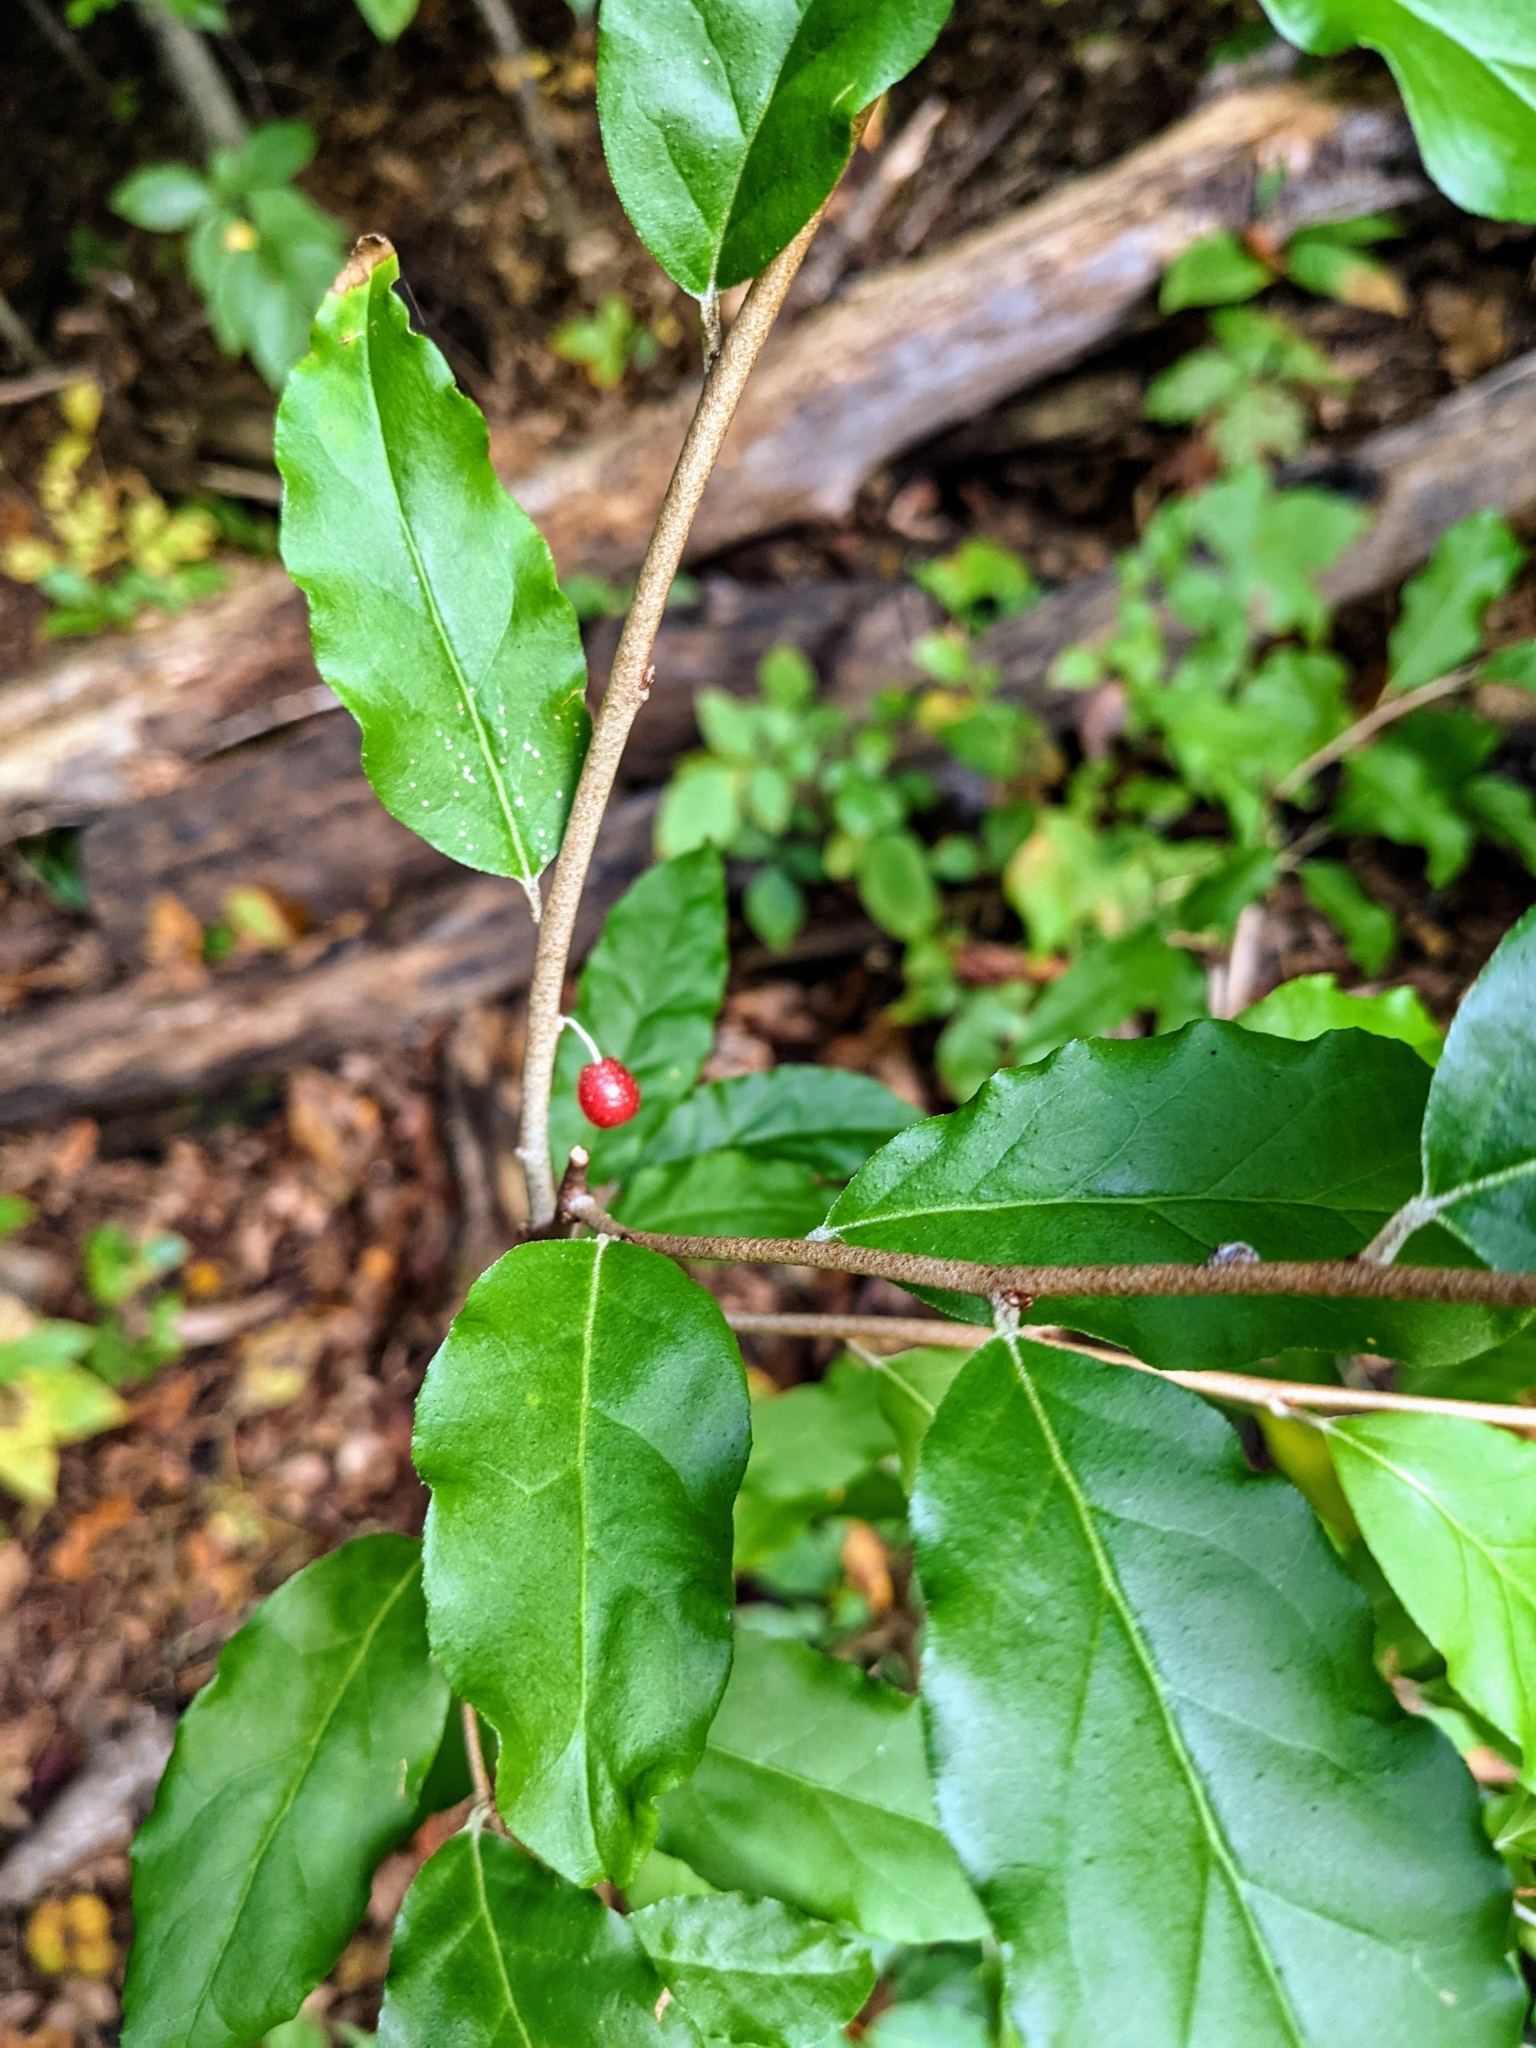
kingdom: Plantae
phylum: Tracheophyta
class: Magnoliopsida
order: Rosales
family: Elaeagnaceae
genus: Elaeagnus
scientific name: Elaeagnus umbellata
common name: Autumn olive
